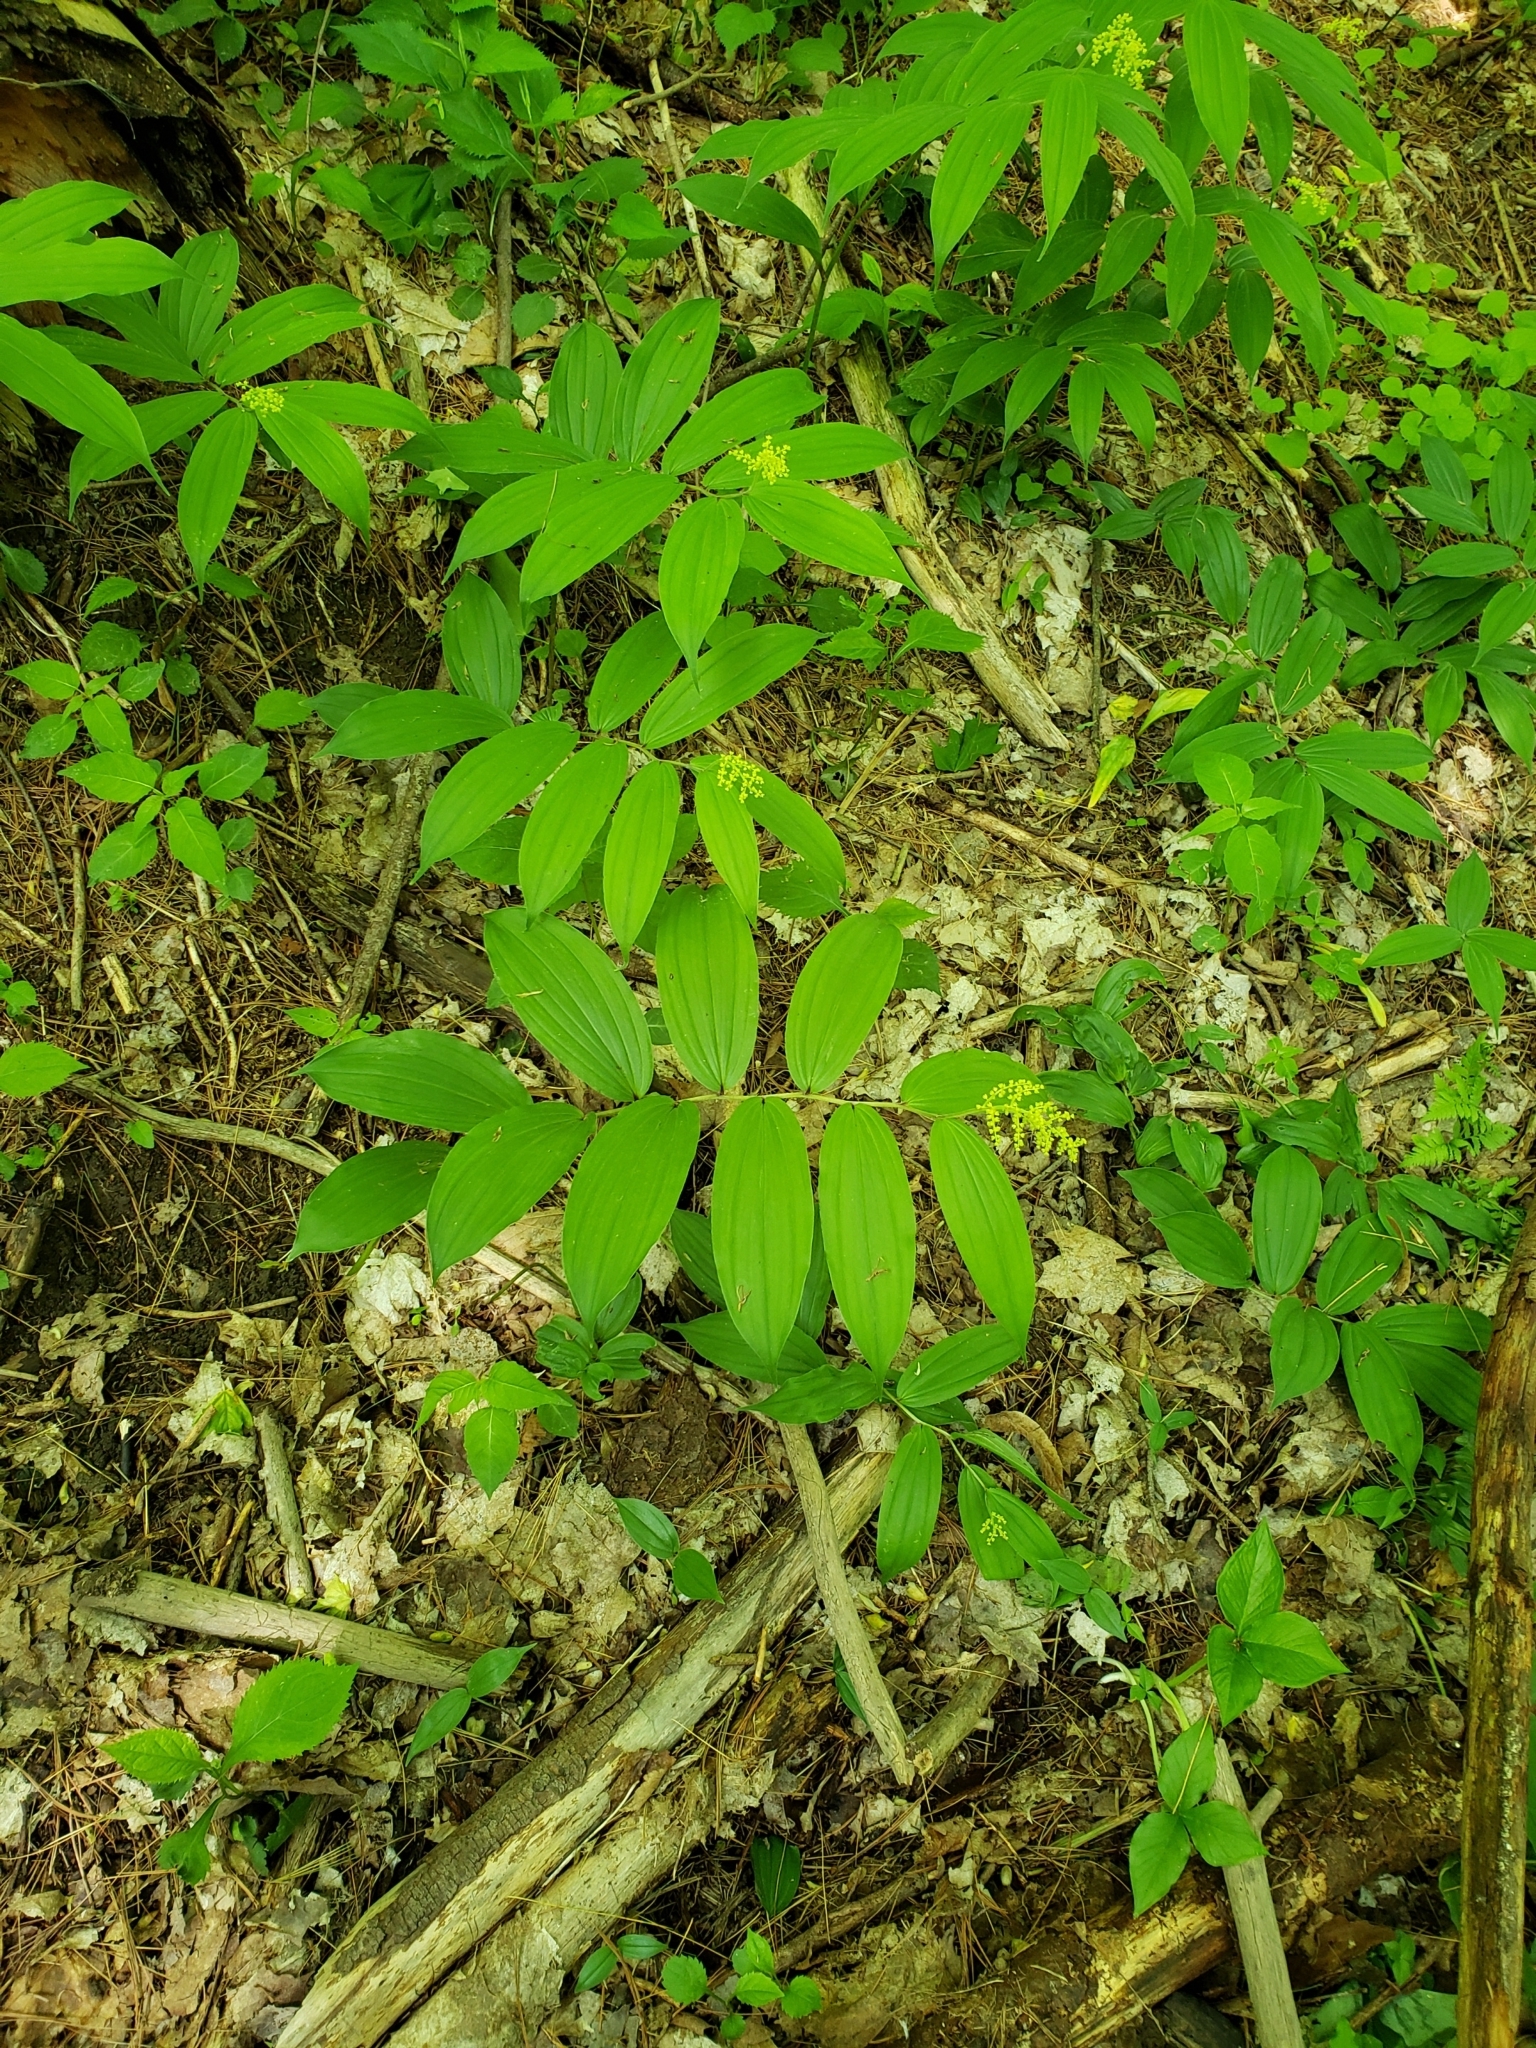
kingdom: Plantae
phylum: Tracheophyta
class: Liliopsida
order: Asparagales
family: Asparagaceae
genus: Maianthemum
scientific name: Maianthemum racemosum
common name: False spikenard
